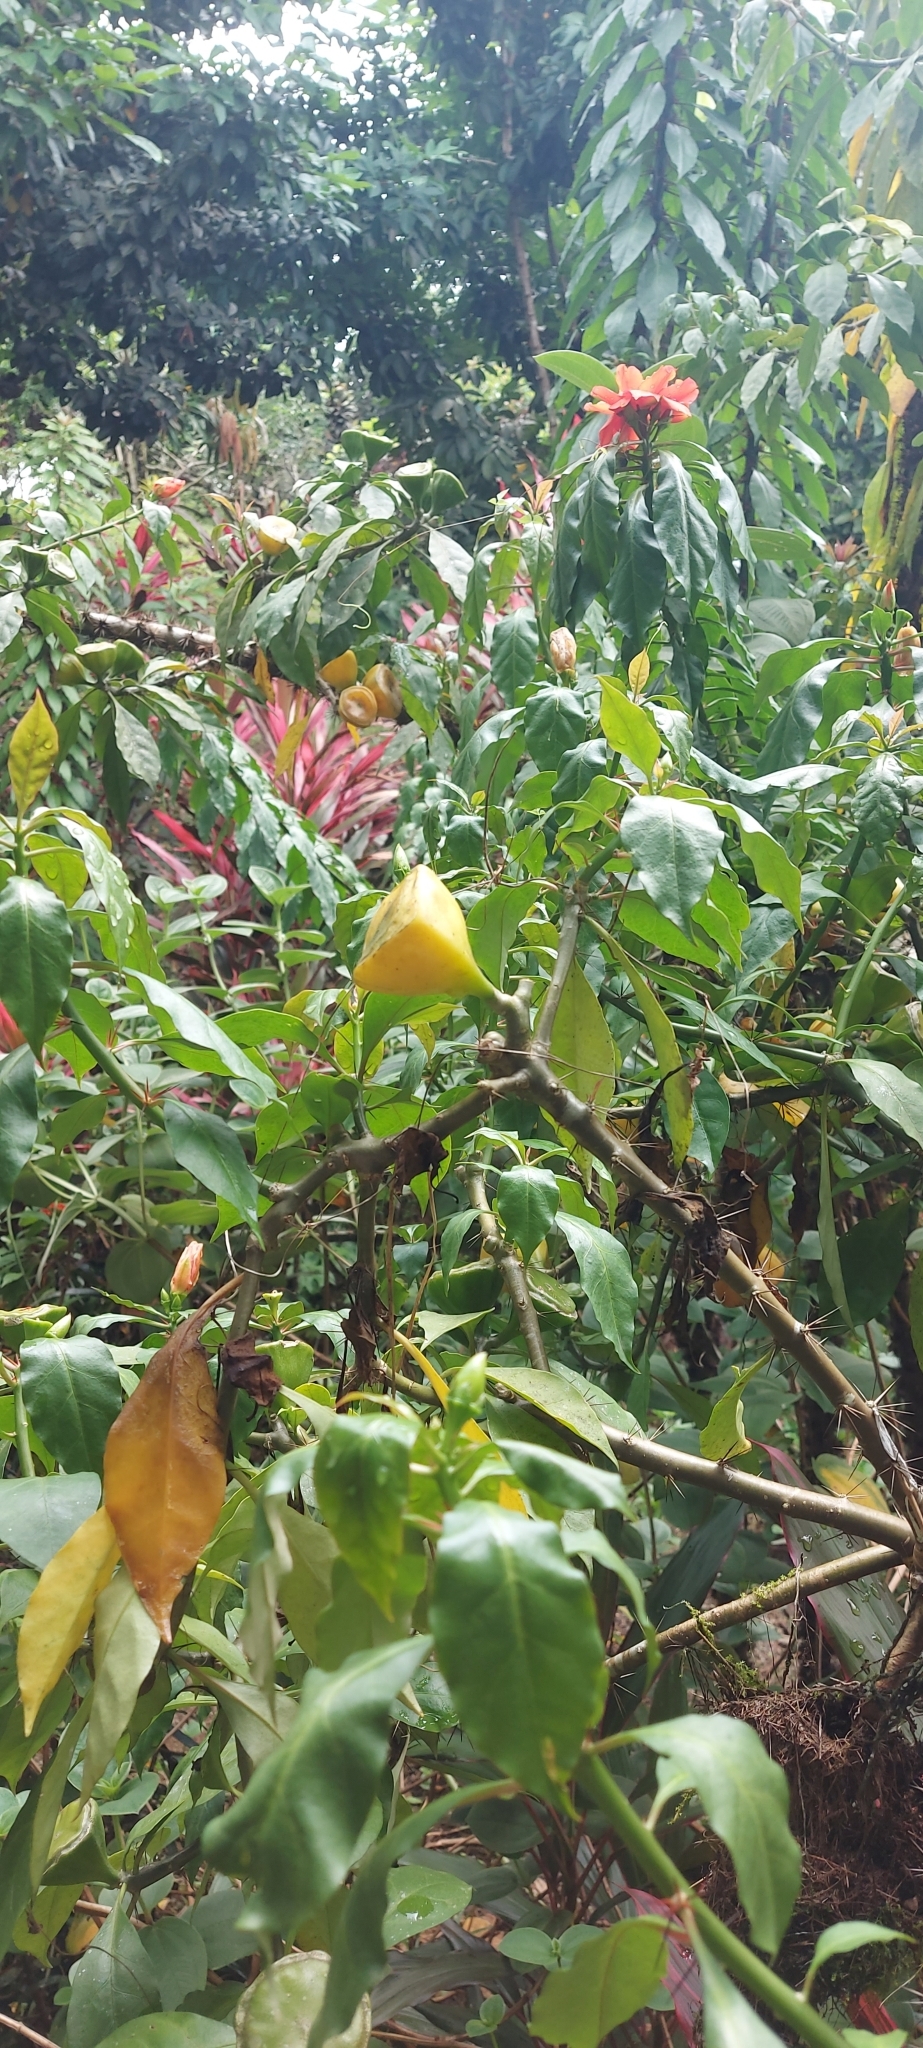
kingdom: Plantae
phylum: Tracheophyta
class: Magnoliopsida
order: Caryophyllales
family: Cactaceae
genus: Leuenbergeria
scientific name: Leuenbergeria bleo
